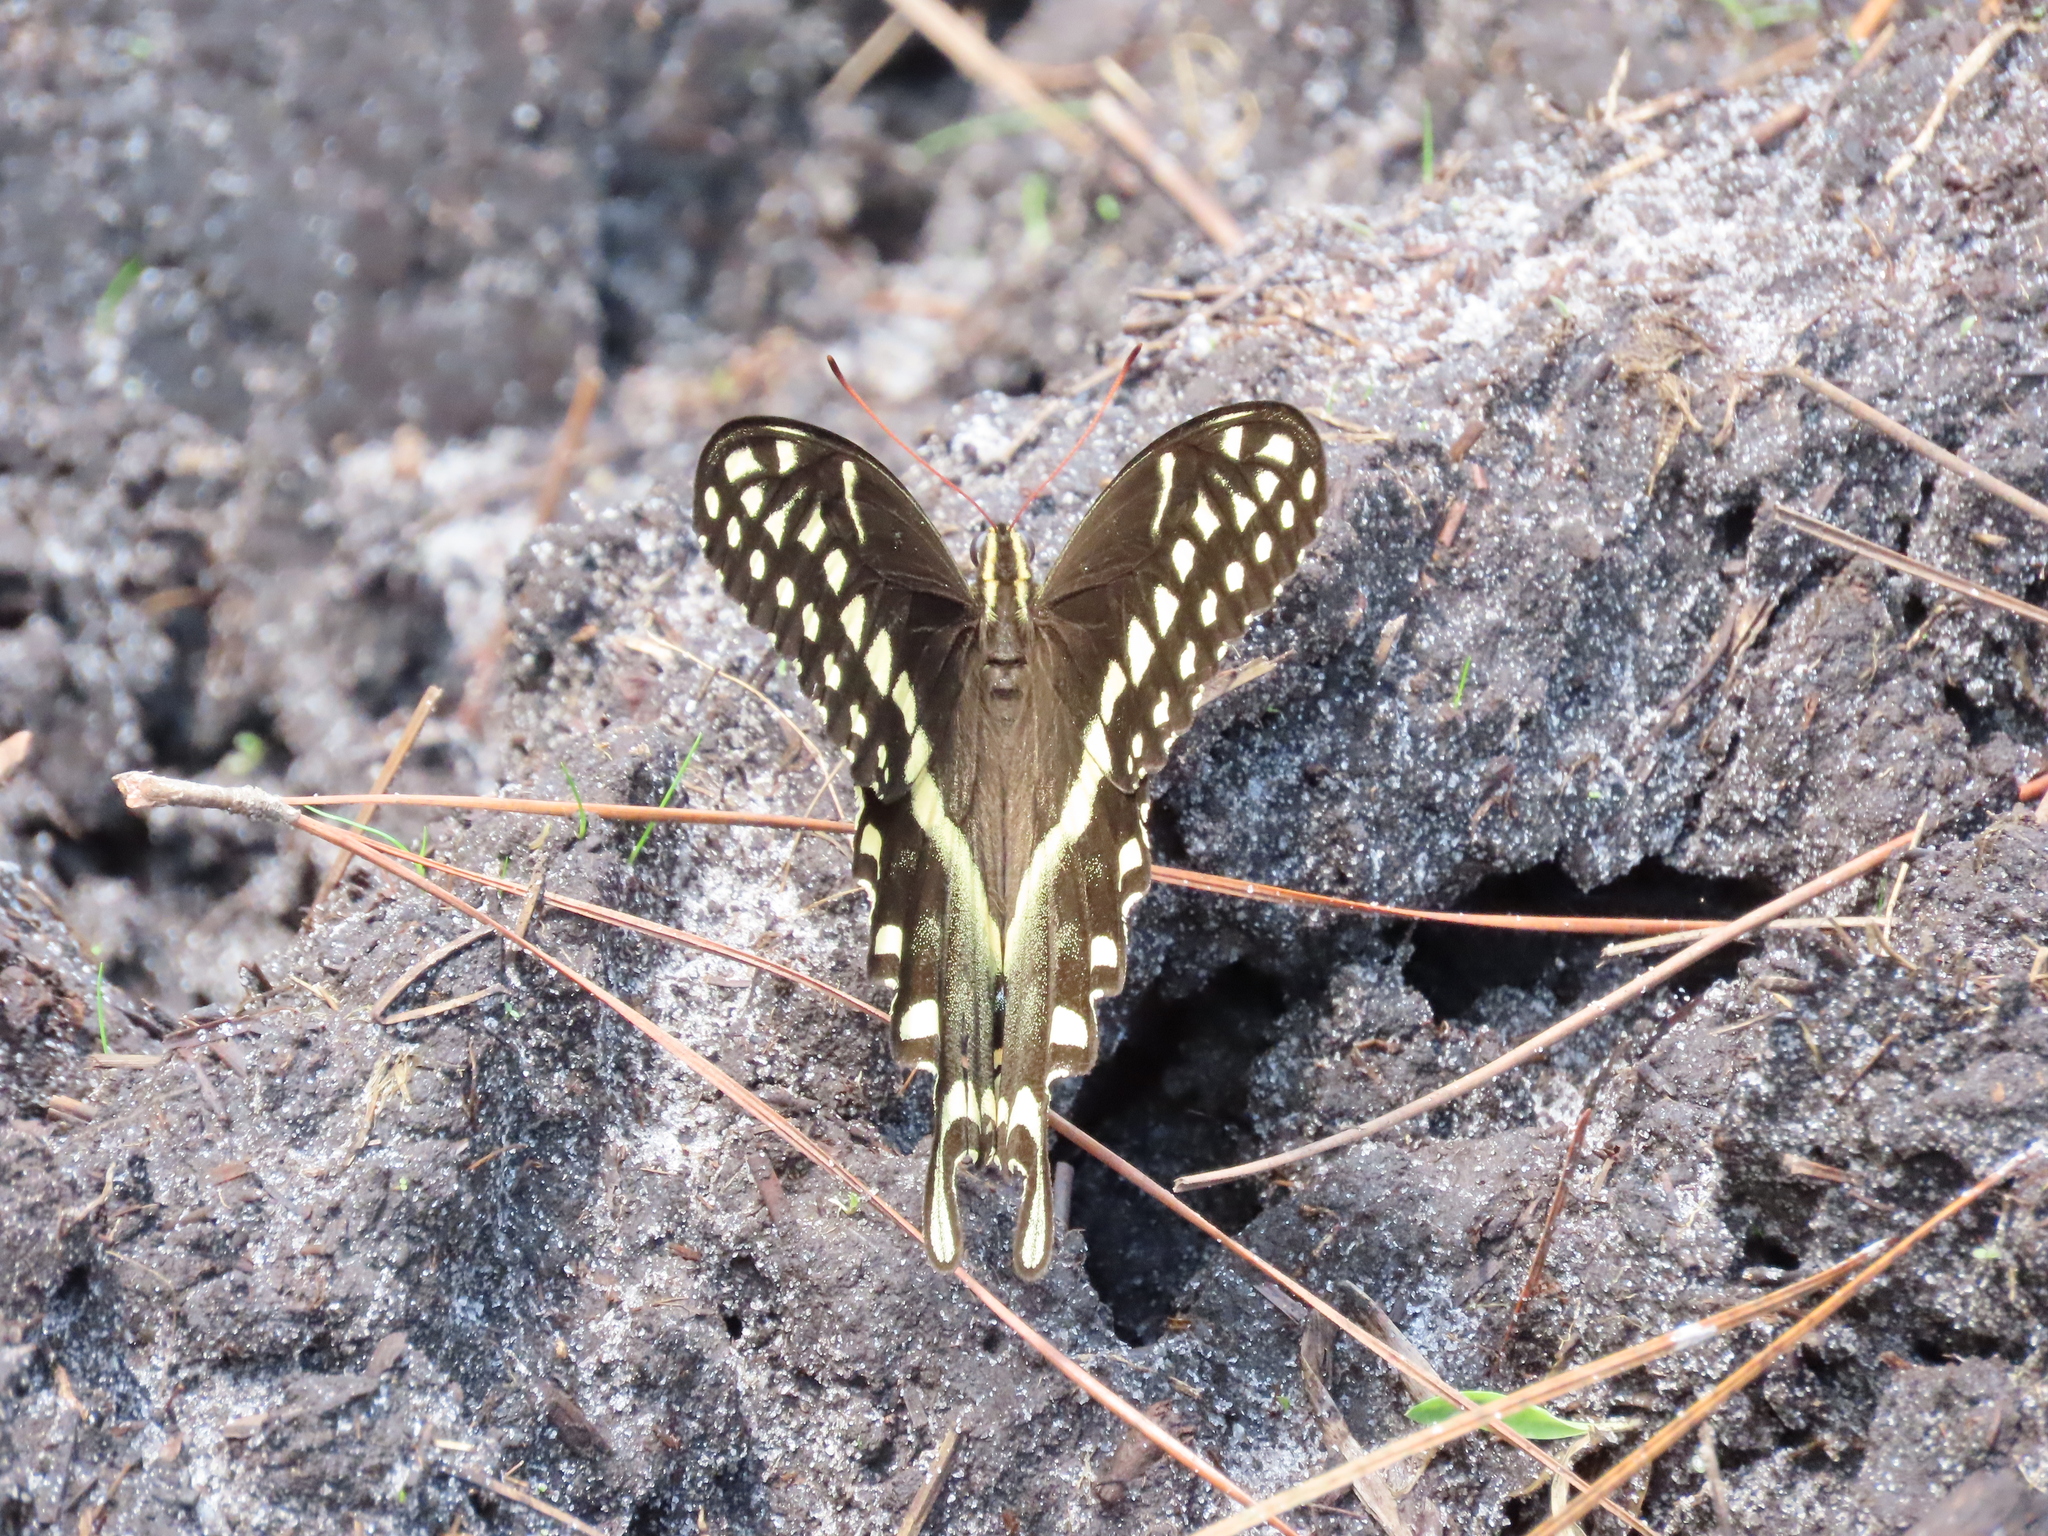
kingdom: Animalia
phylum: Arthropoda
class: Insecta
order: Lepidoptera
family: Papilionidae
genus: Papilio
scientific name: Papilio palamedes
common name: Palamedes swallowtail
